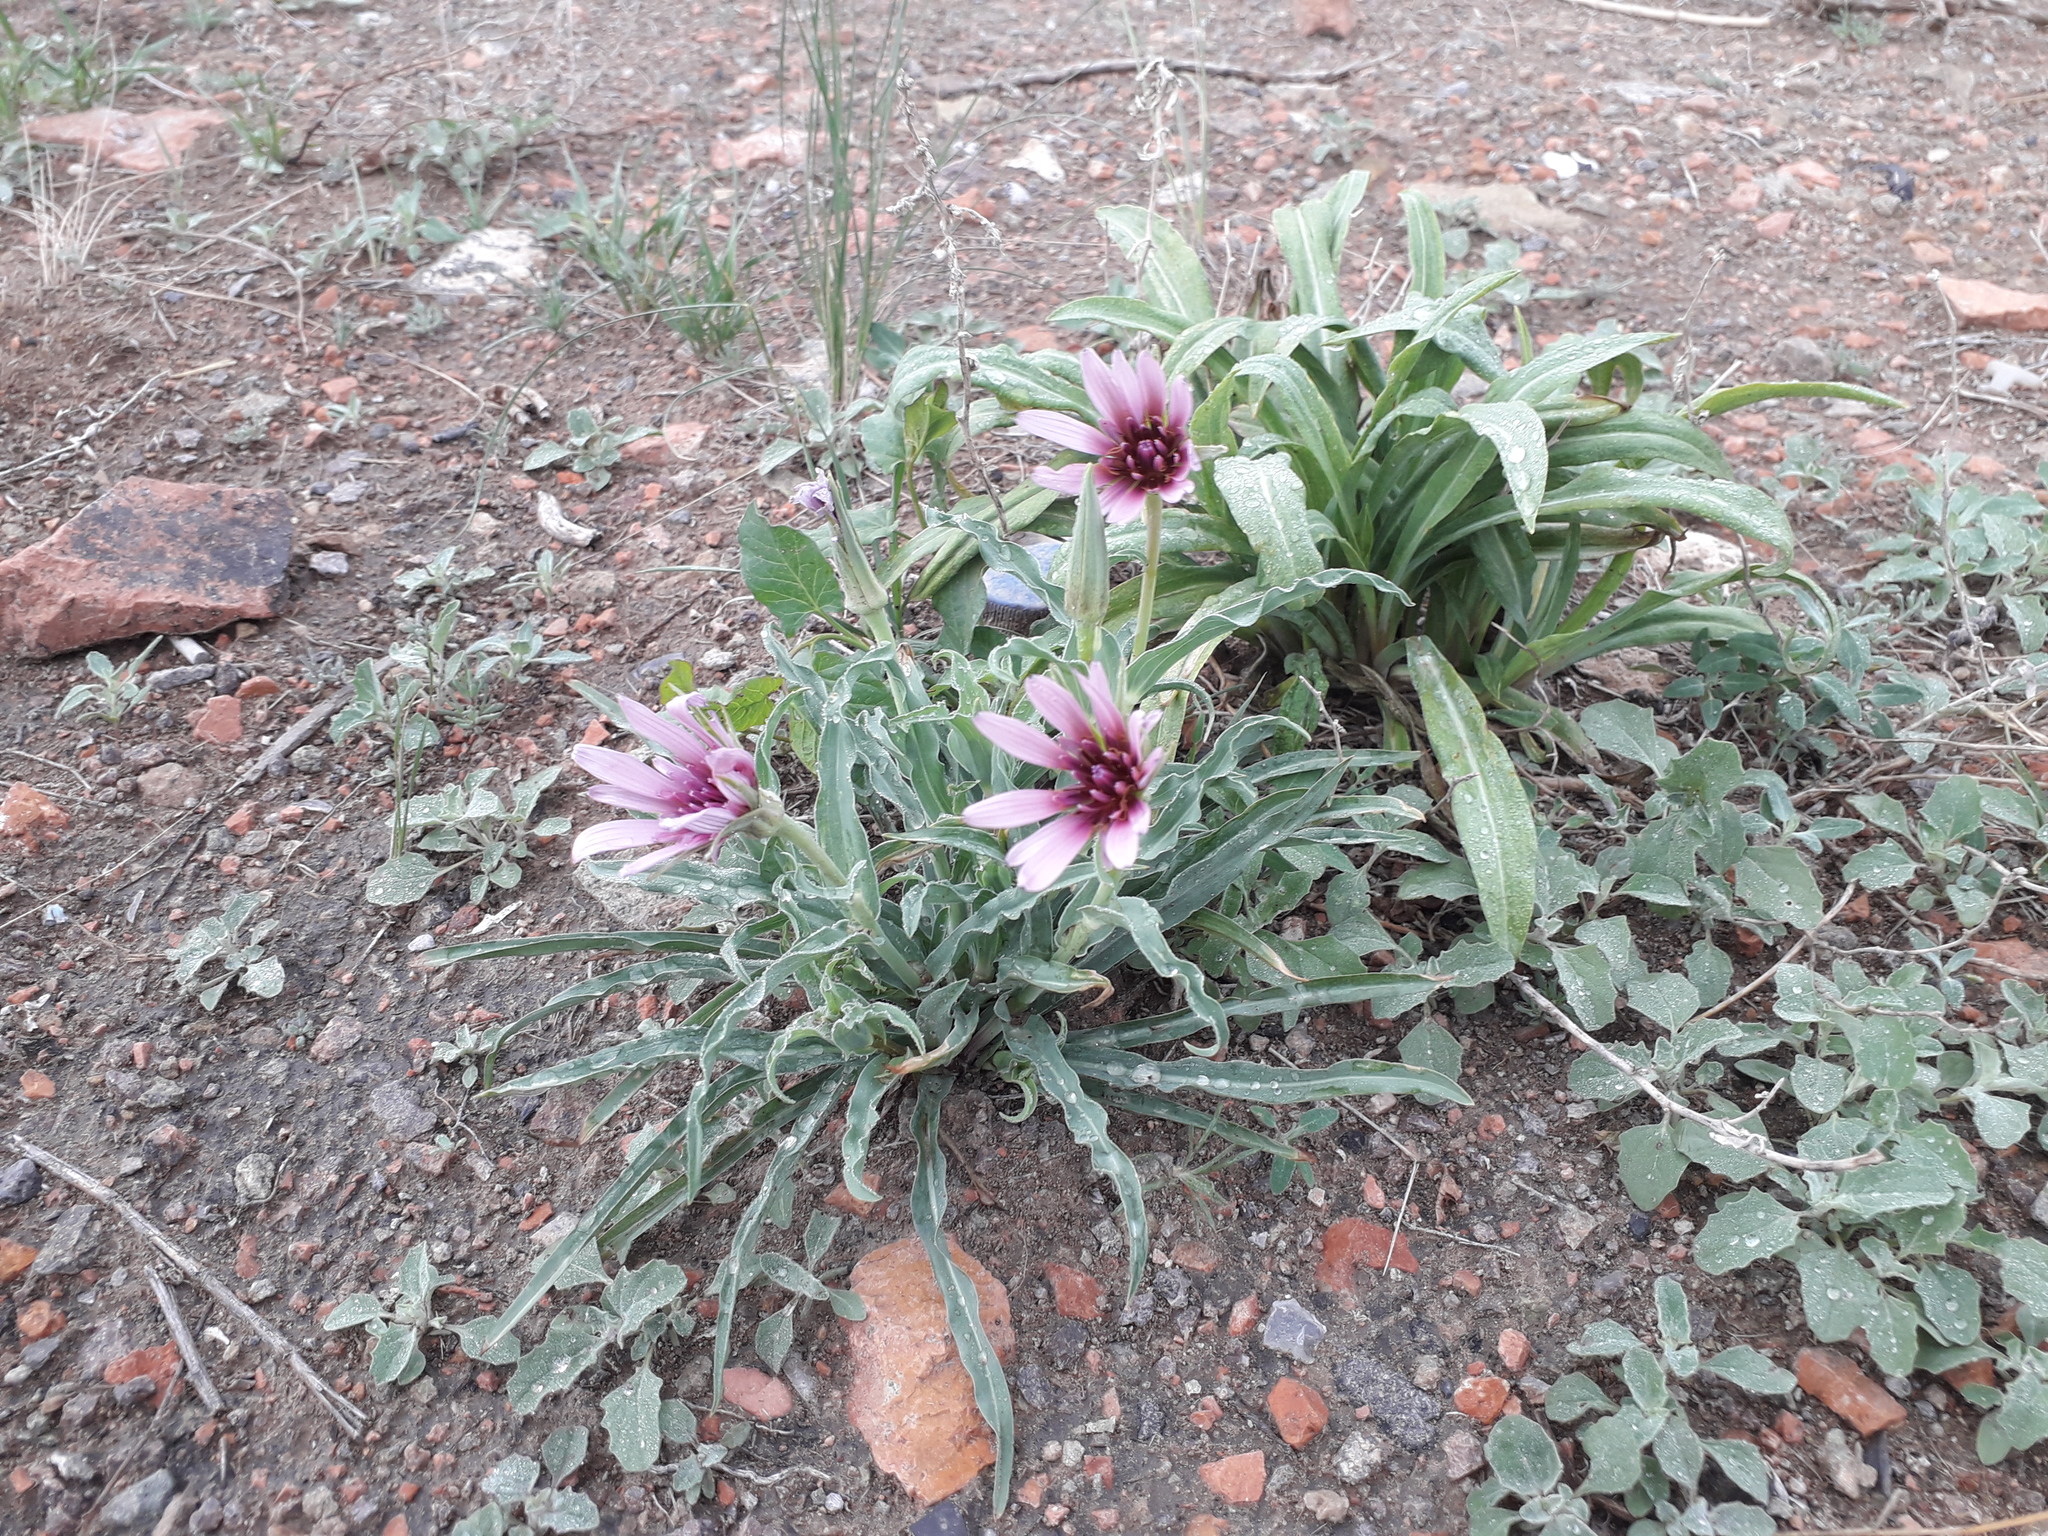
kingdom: Plantae
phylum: Tracheophyta
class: Magnoliopsida
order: Asterales
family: Asteraceae
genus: Tragopogon
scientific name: Tragopogon porrifolius
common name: Salsify
